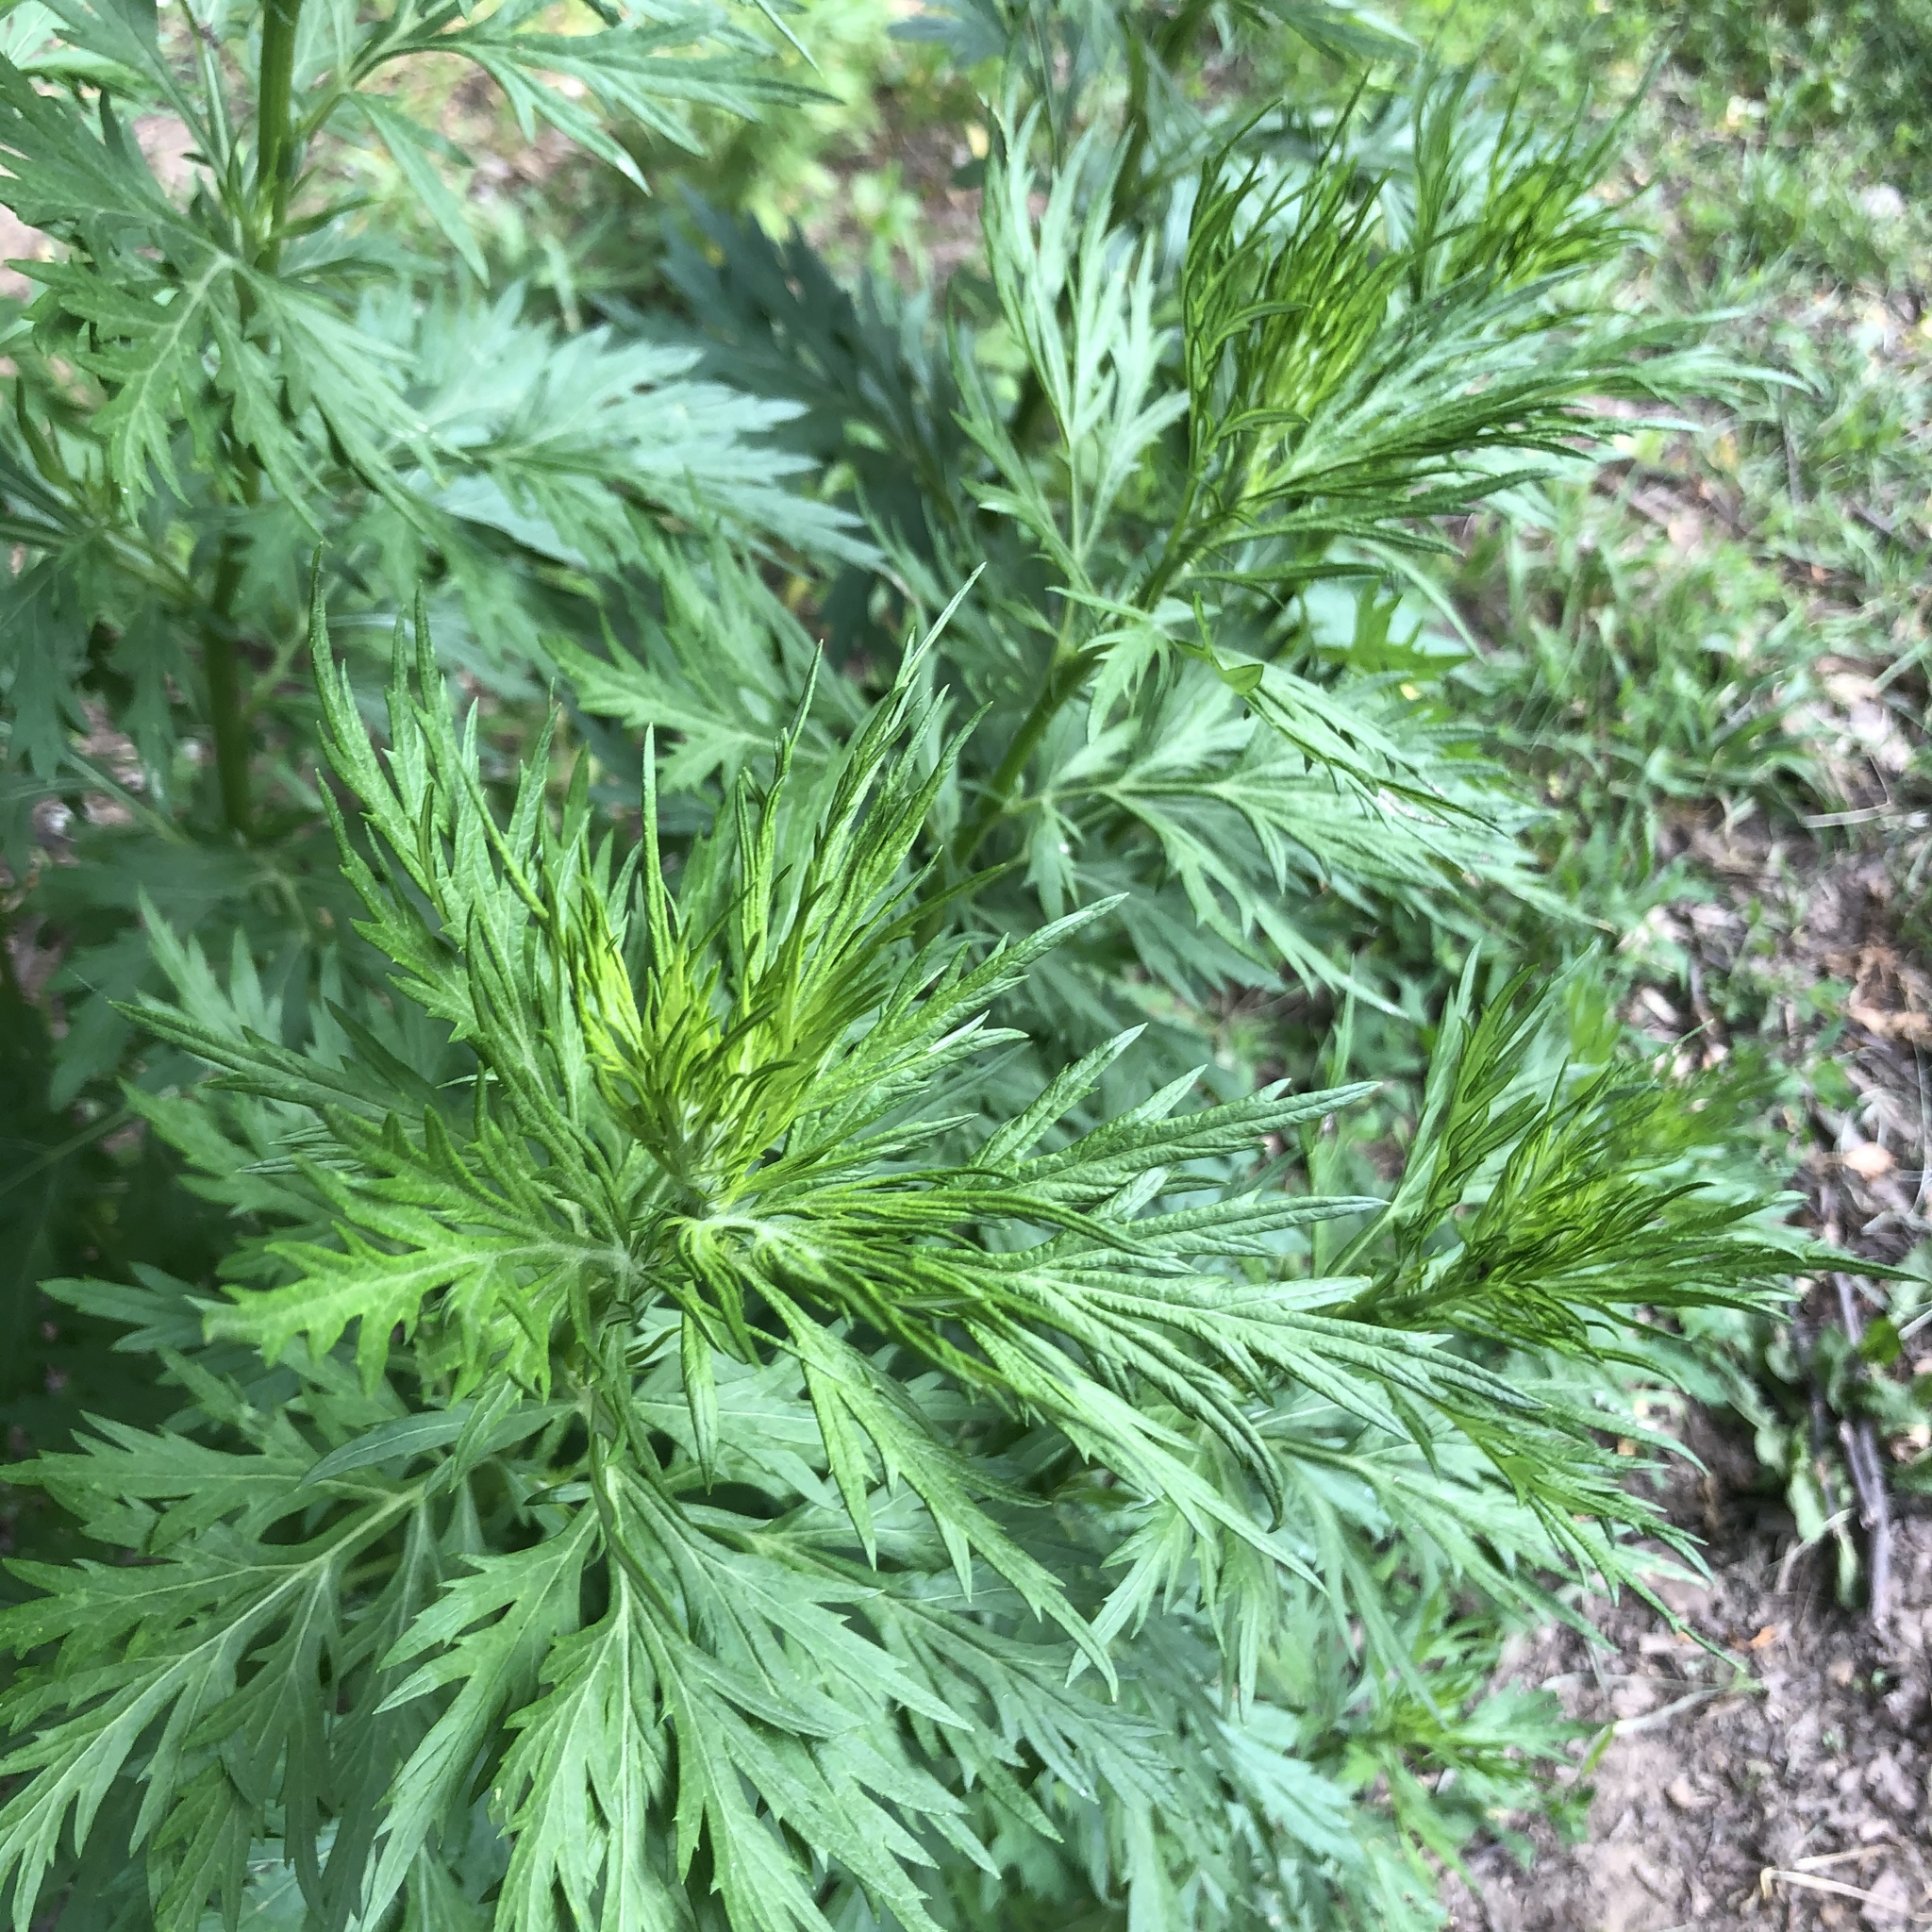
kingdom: Plantae
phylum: Tracheophyta
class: Magnoliopsida
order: Asterales
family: Asteraceae
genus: Artemisia
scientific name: Artemisia vulgaris
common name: Mugwort
